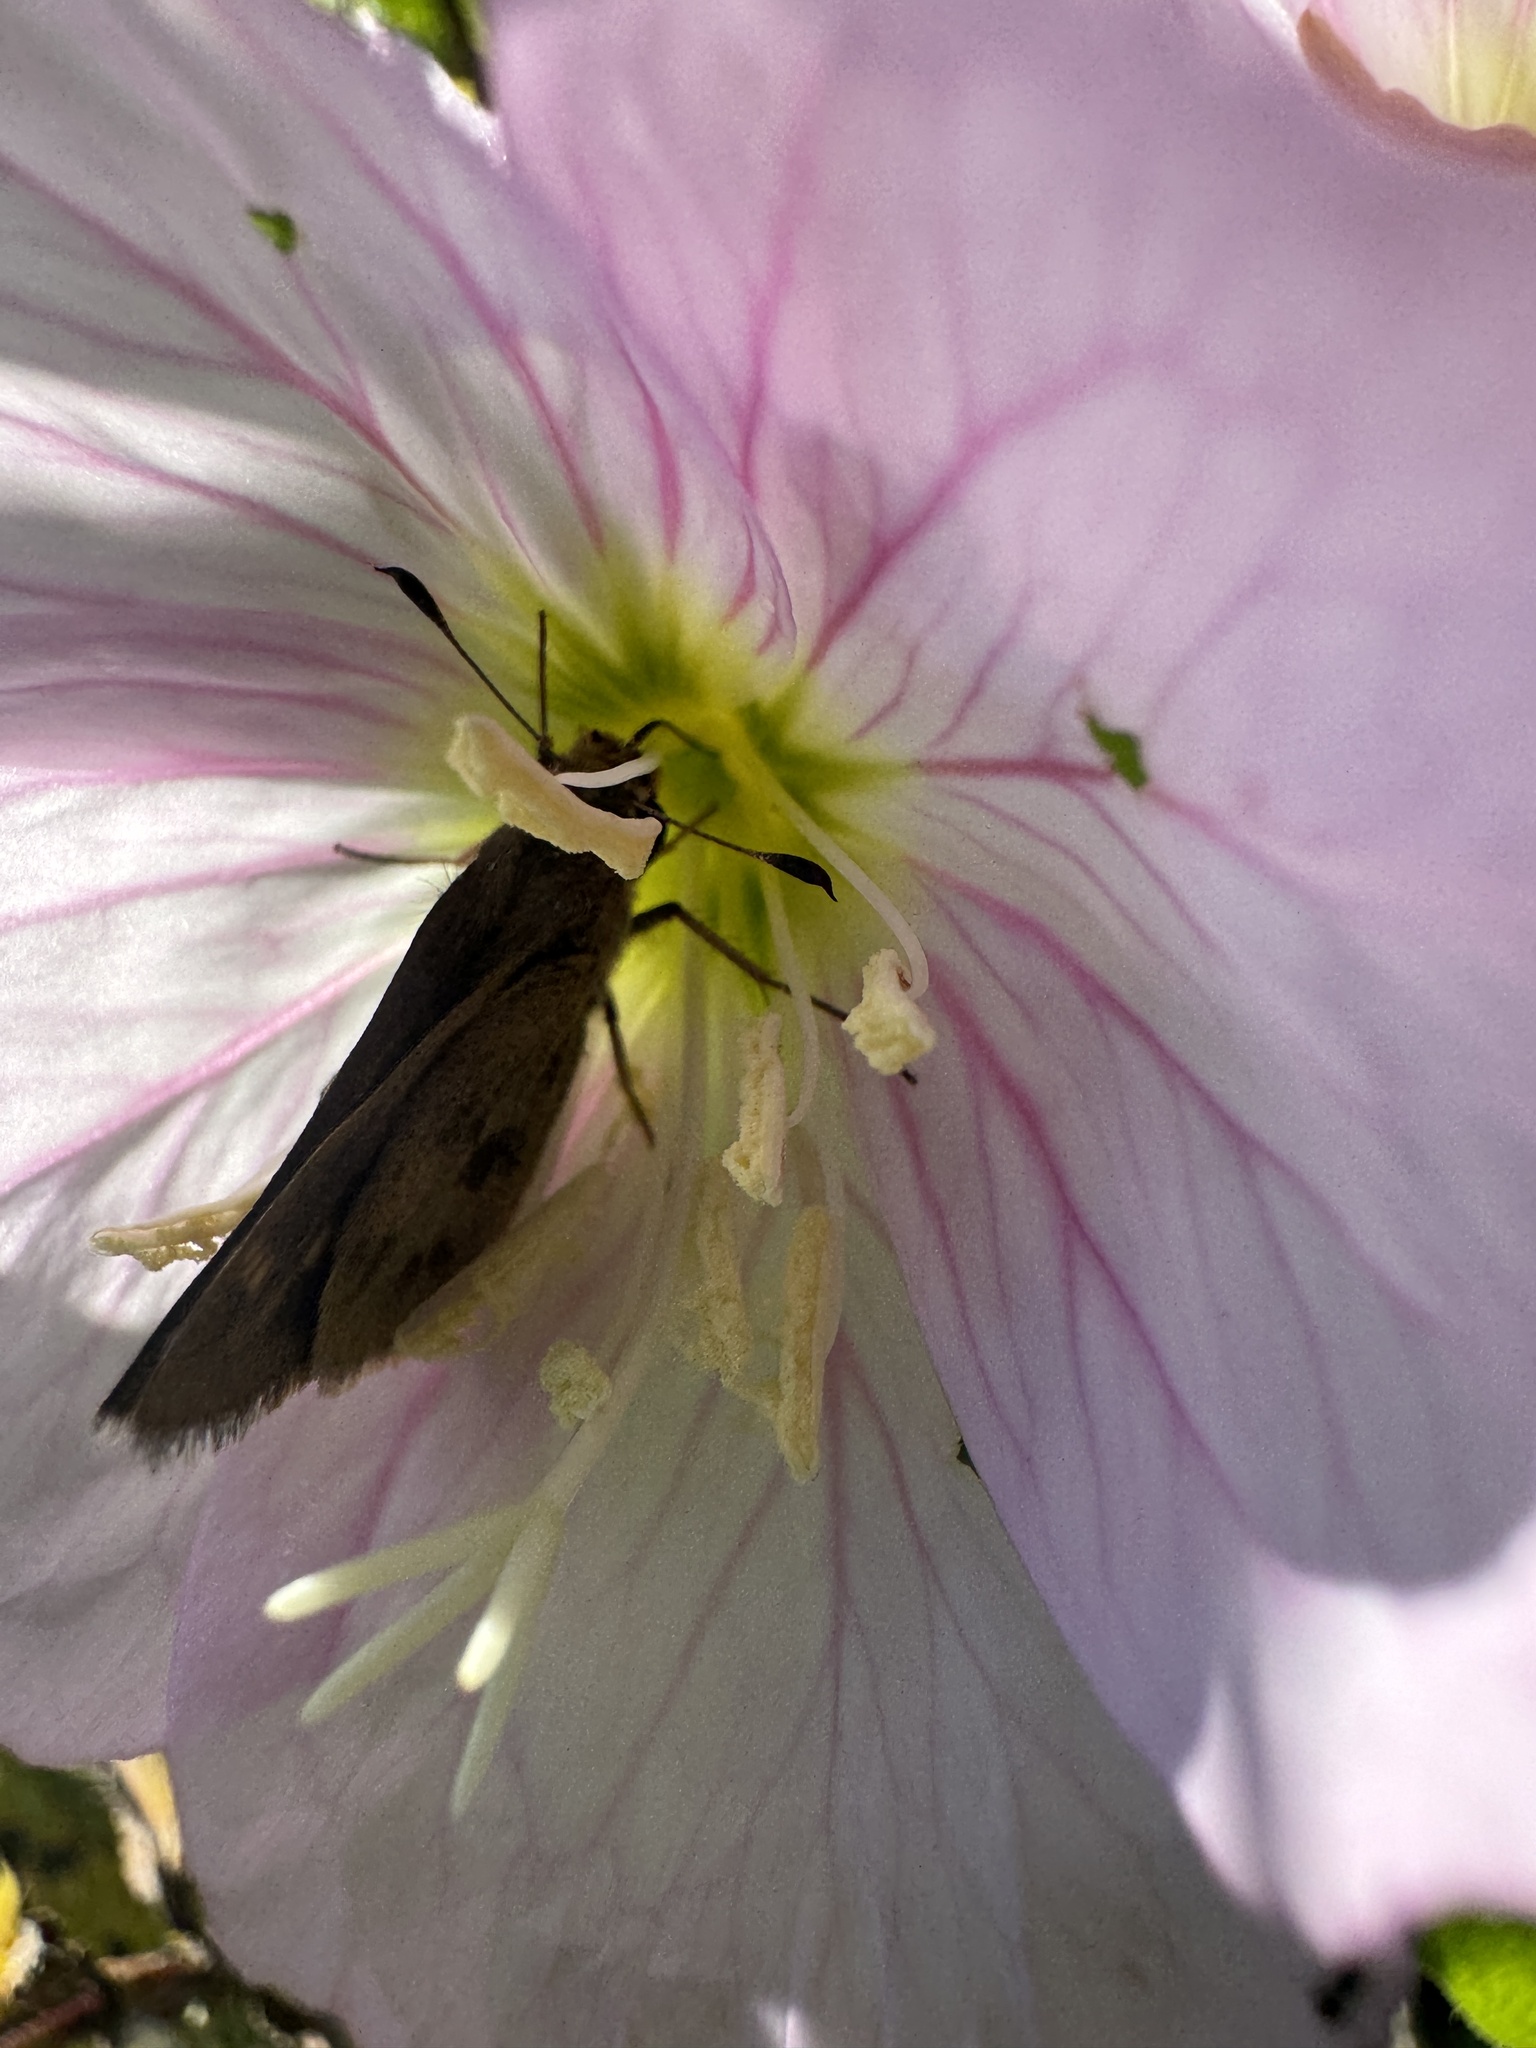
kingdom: Animalia
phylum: Arthropoda
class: Insecta
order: Lepidoptera
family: Hesperiidae
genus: Polites
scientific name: Polites vibex
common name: Whirlabout
